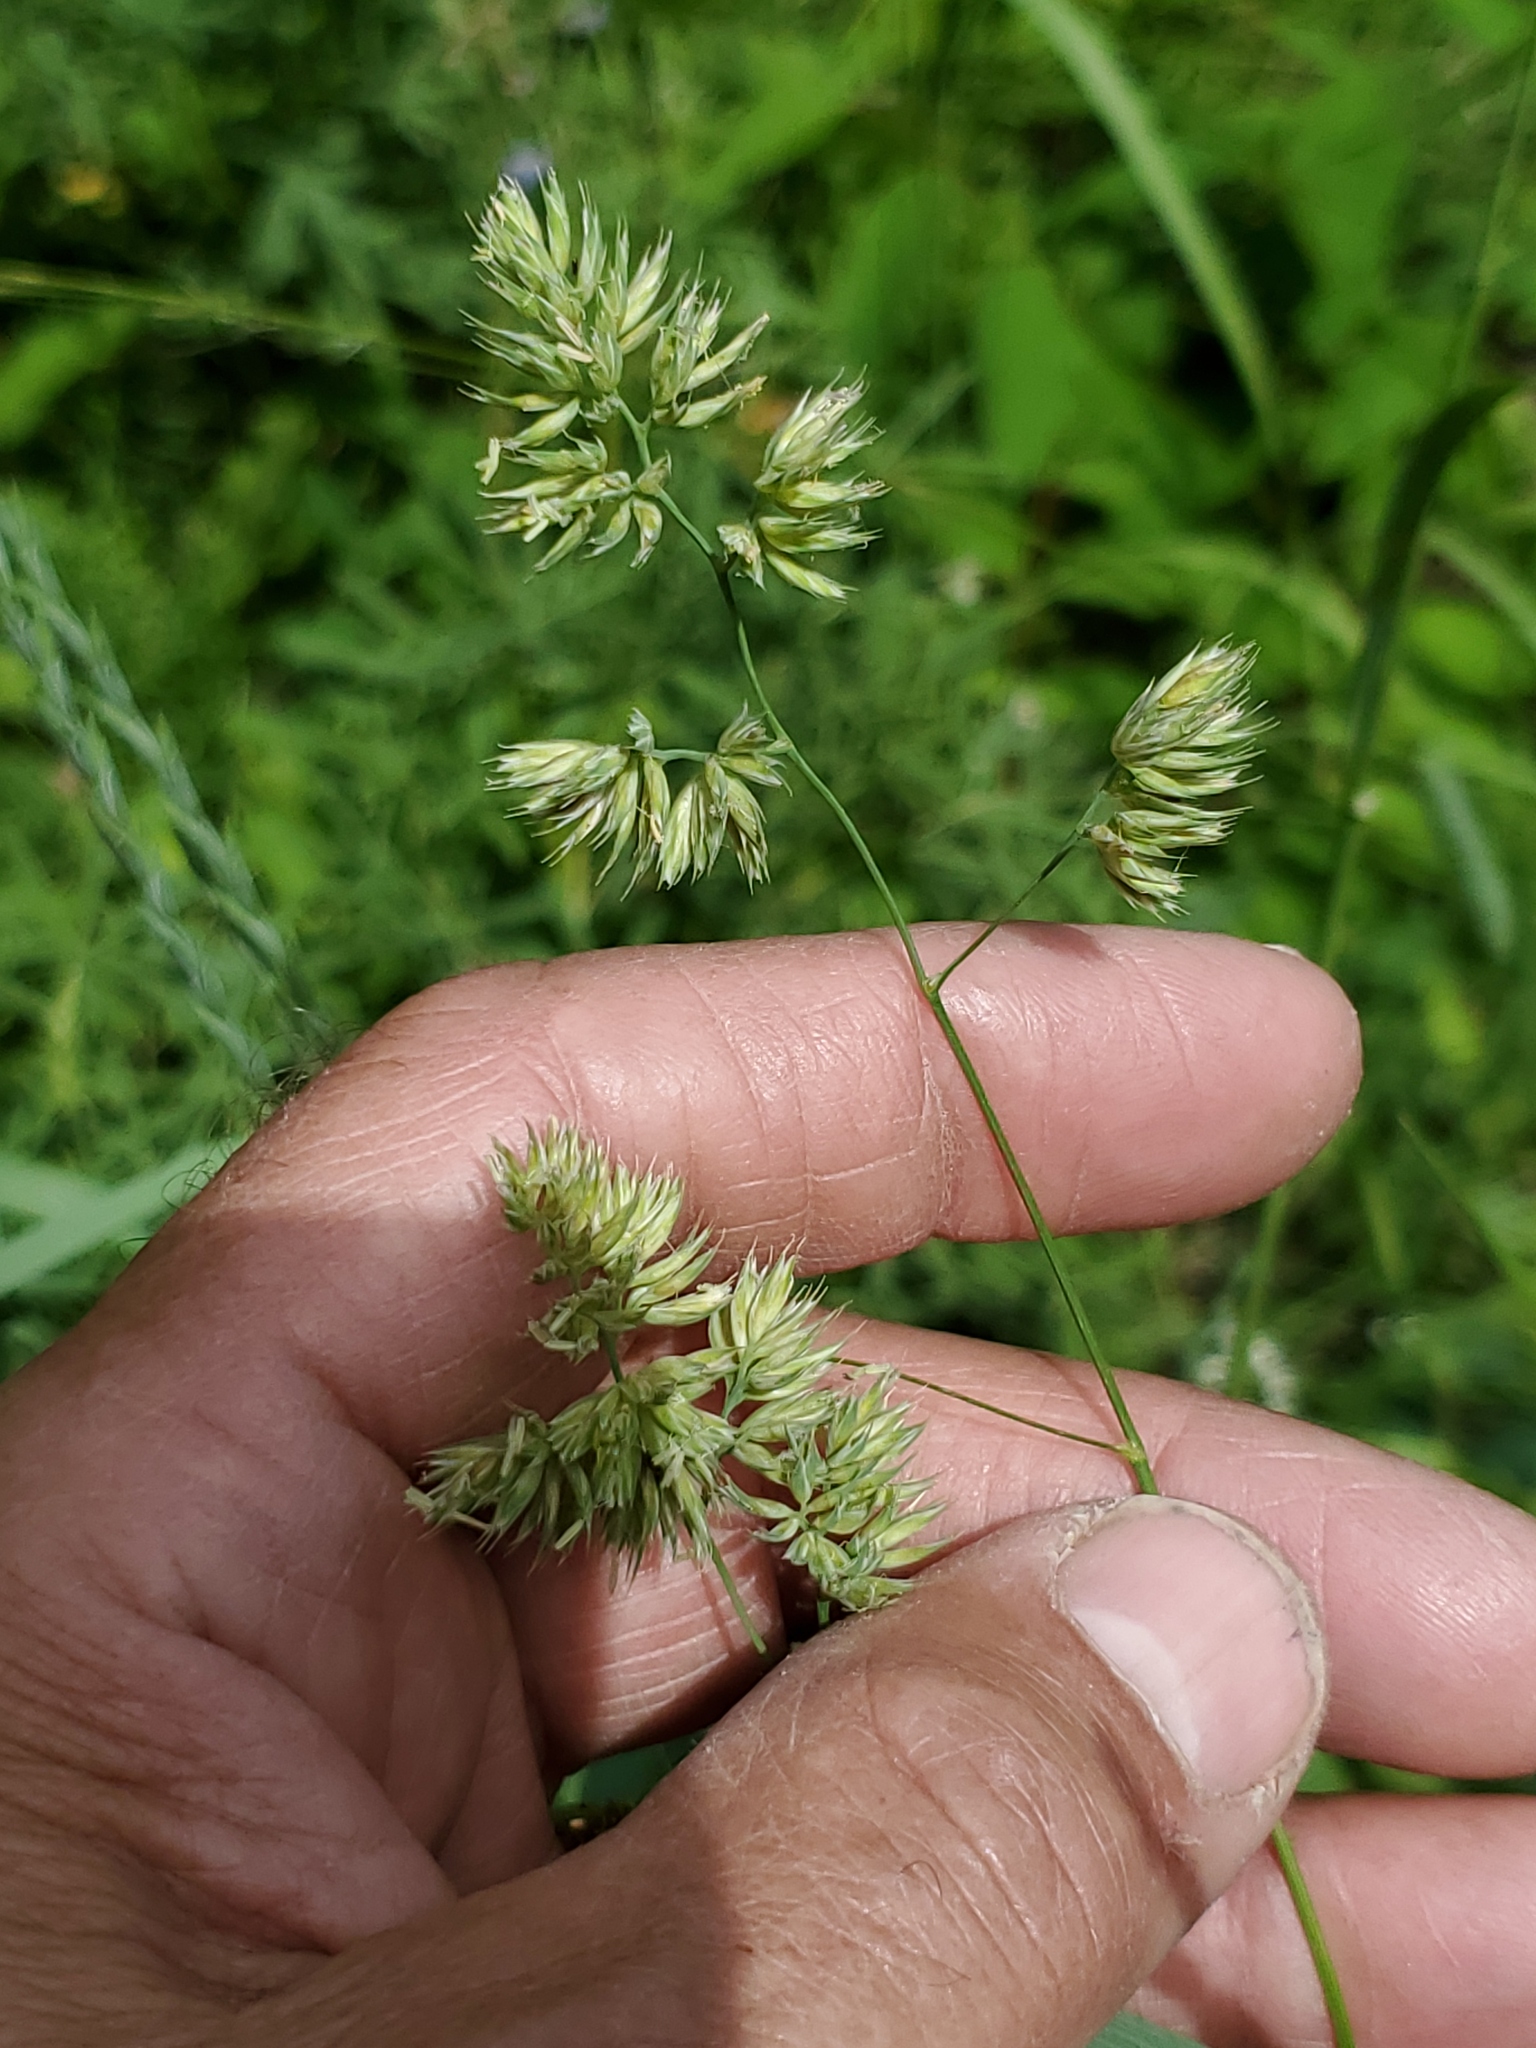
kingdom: Plantae
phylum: Tracheophyta
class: Liliopsida
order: Poales
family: Poaceae
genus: Dactylis
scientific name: Dactylis glomerata
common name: Orchardgrass
